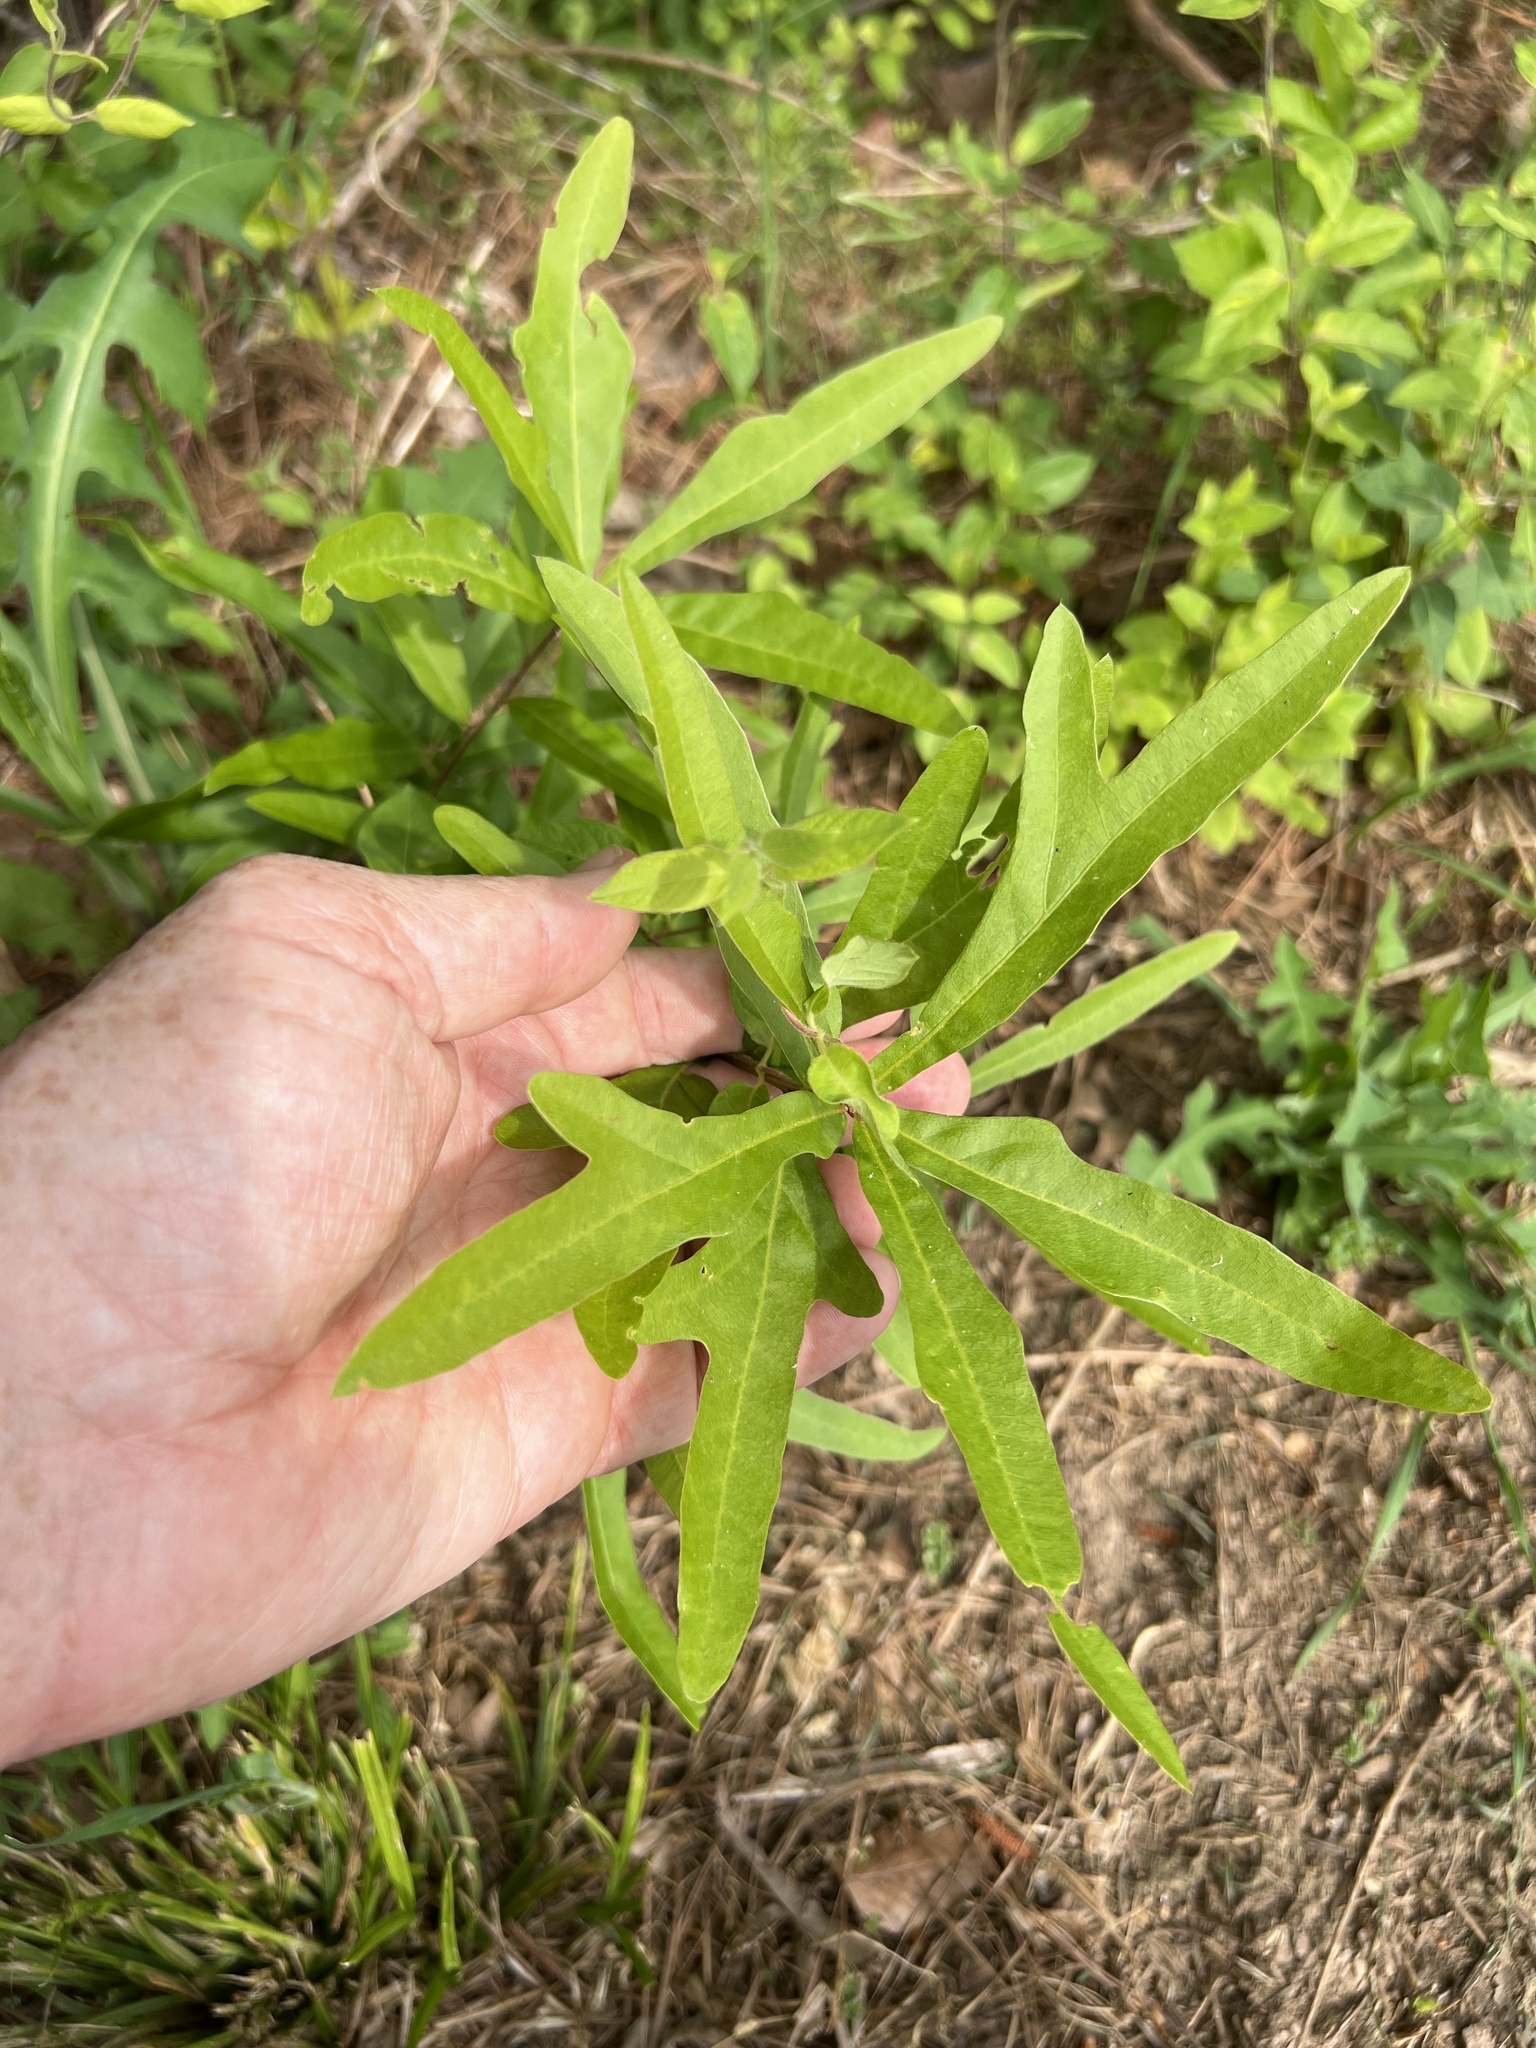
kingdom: Plantae
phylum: Tracheophyta
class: Magnoliopsida
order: Fagales
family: Fagaceae
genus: Quercus
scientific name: Quercus nigra
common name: Water oak
